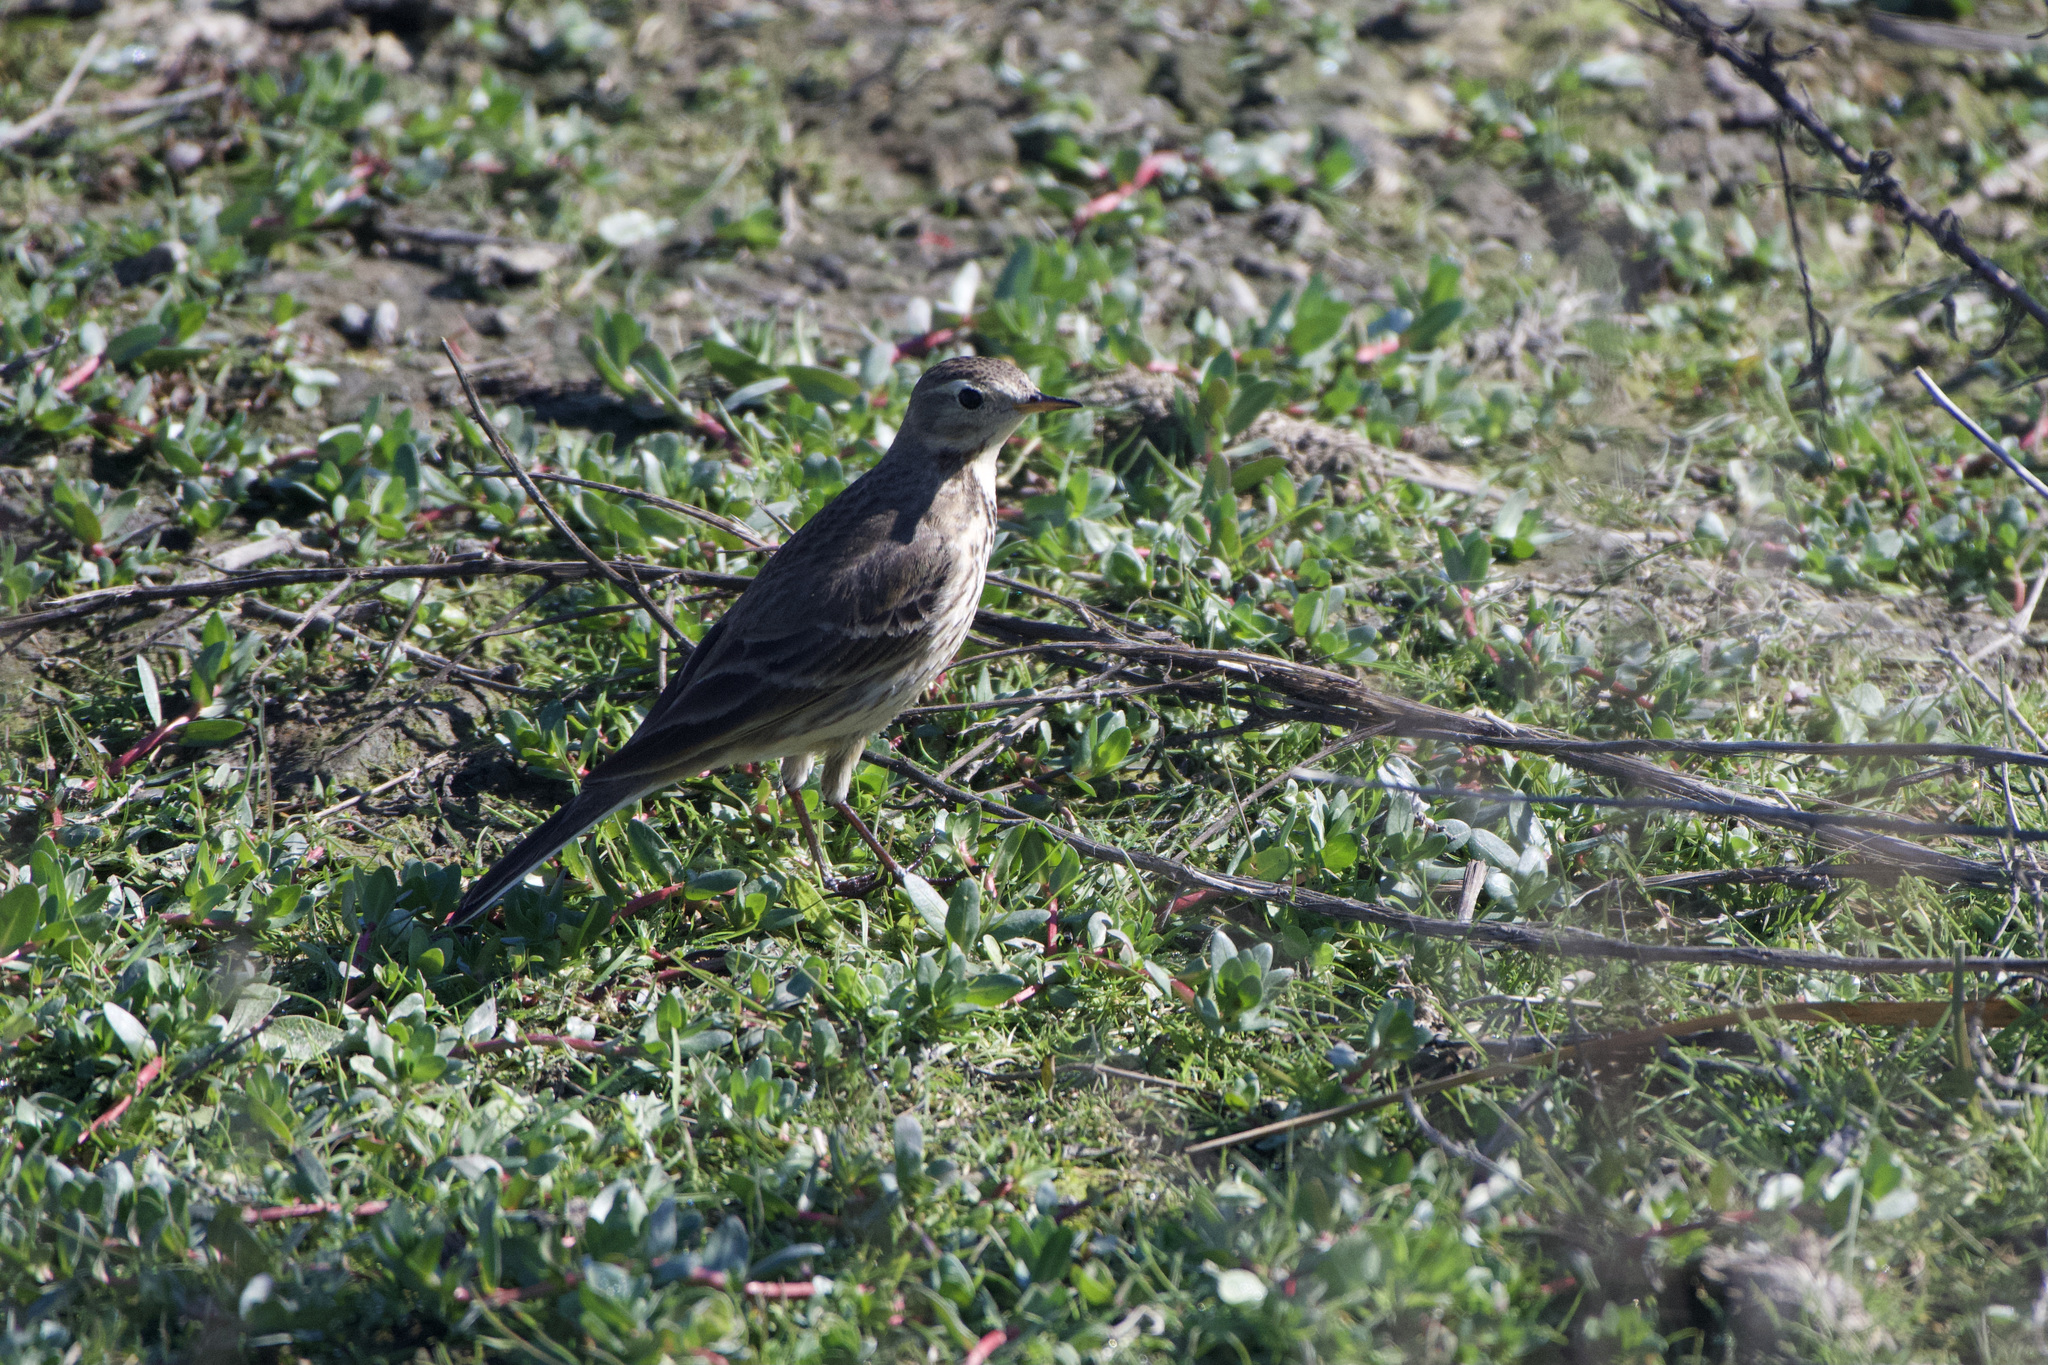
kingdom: Animalia
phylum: Chordata
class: Aves
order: Passeriformes
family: Motacillidae
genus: Anthus
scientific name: Anthus rubescens
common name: Buff-bellied pipit
